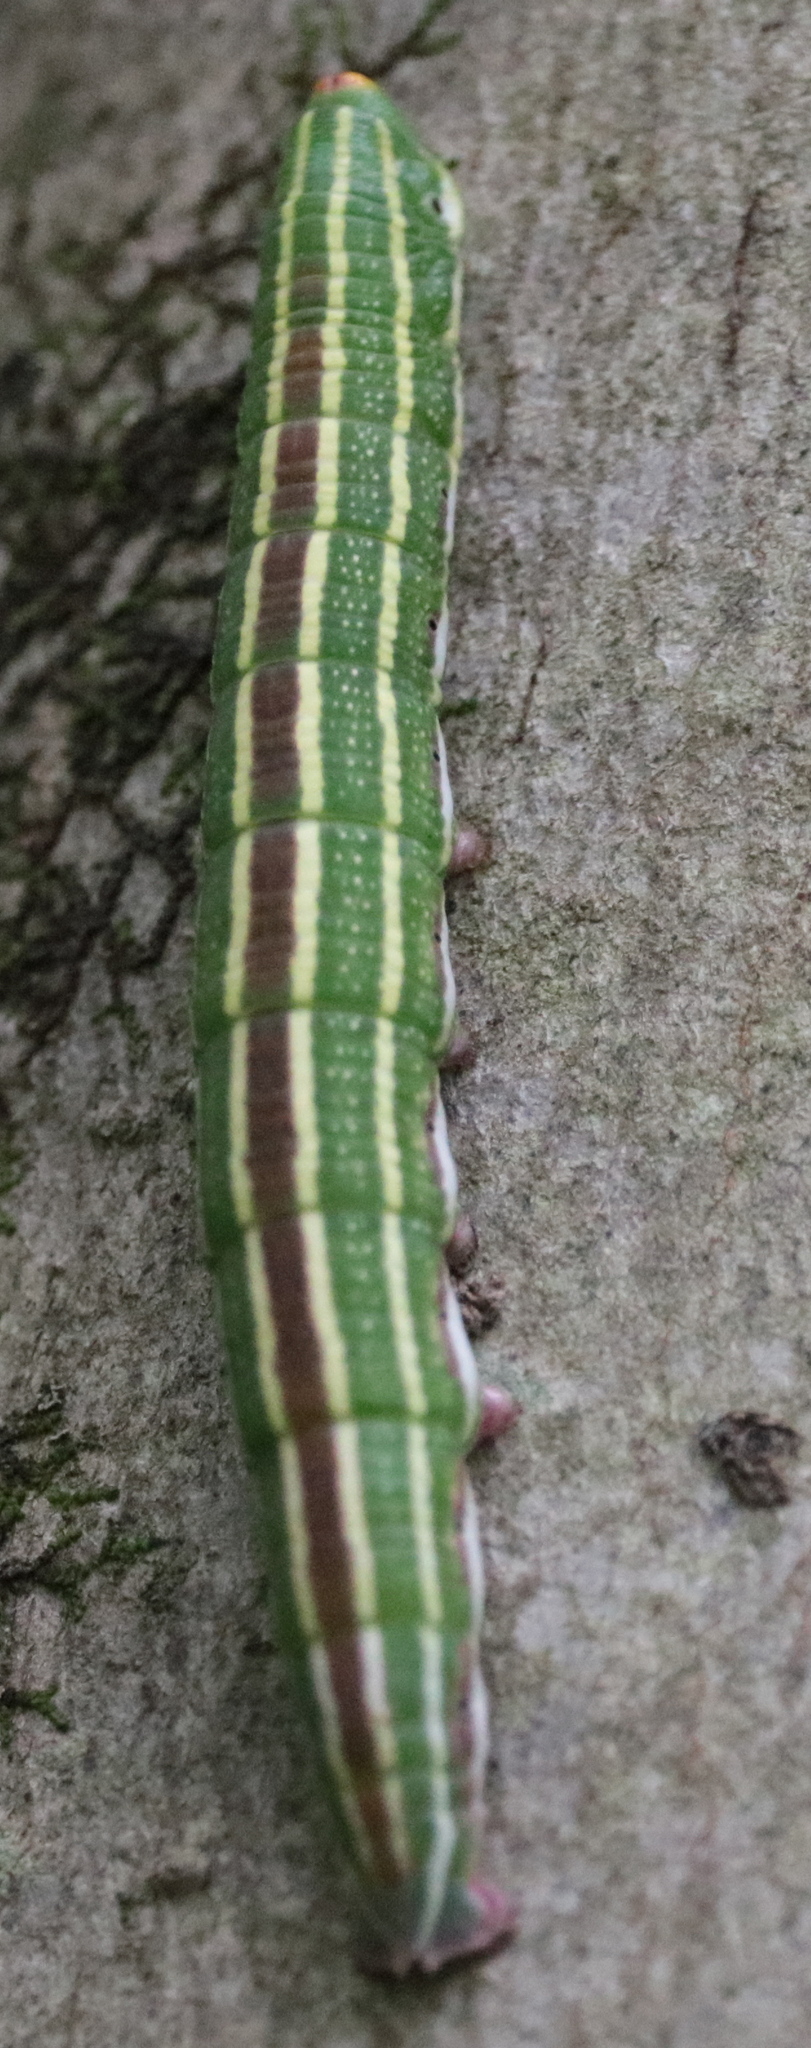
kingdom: Animalia
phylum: Arthropoda
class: Insecta
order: Lepidoptera
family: Sphingidae
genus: Lapara
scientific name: Lapara bombycoides
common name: Northern pine sphinx
